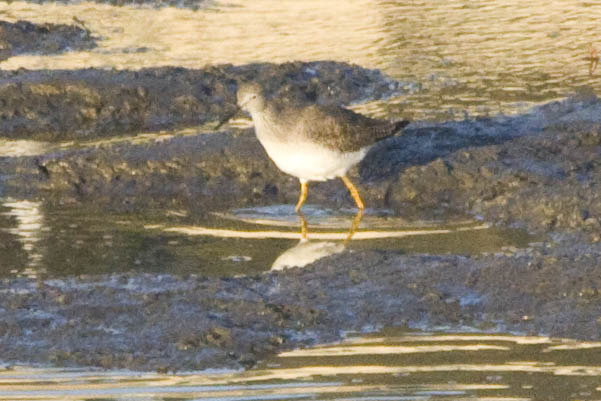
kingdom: Animalia
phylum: Chordata
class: Aves
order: Charadriiformes
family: Scolopacidae
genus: Tringa
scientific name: Tringa melanoleuca
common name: Greater yellowlegs
